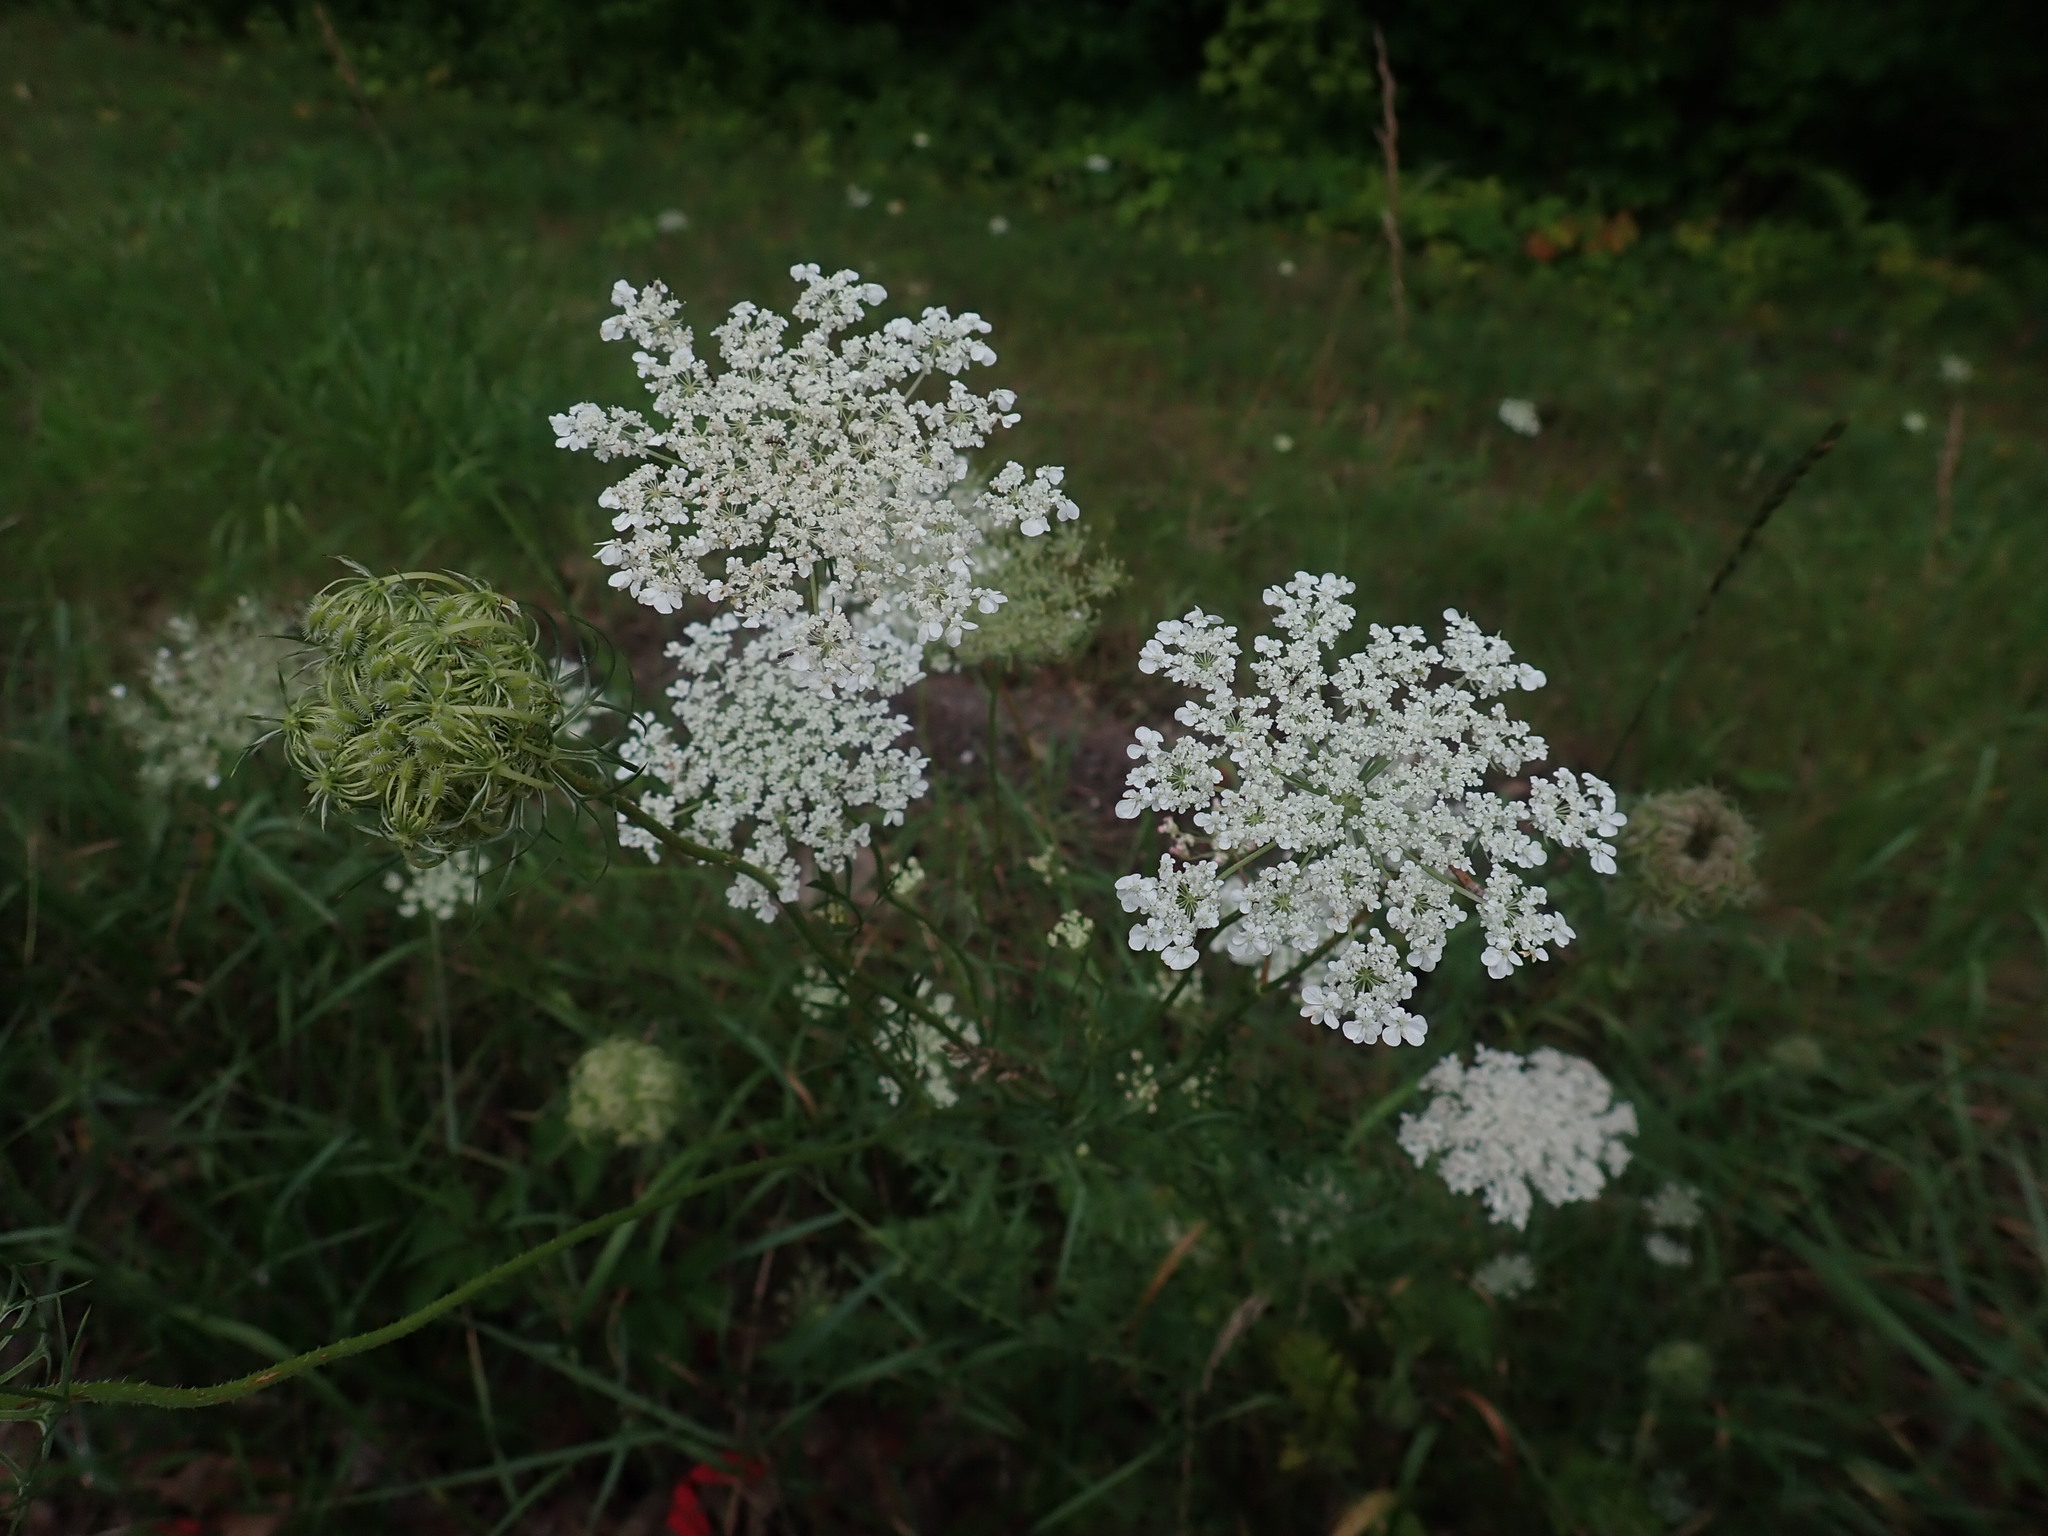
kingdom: Plantae
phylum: Tracheophyta
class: Magnoliopsida
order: Apiales
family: Apiaceae
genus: Daucus
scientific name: Daucus carota
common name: Wild carrot
